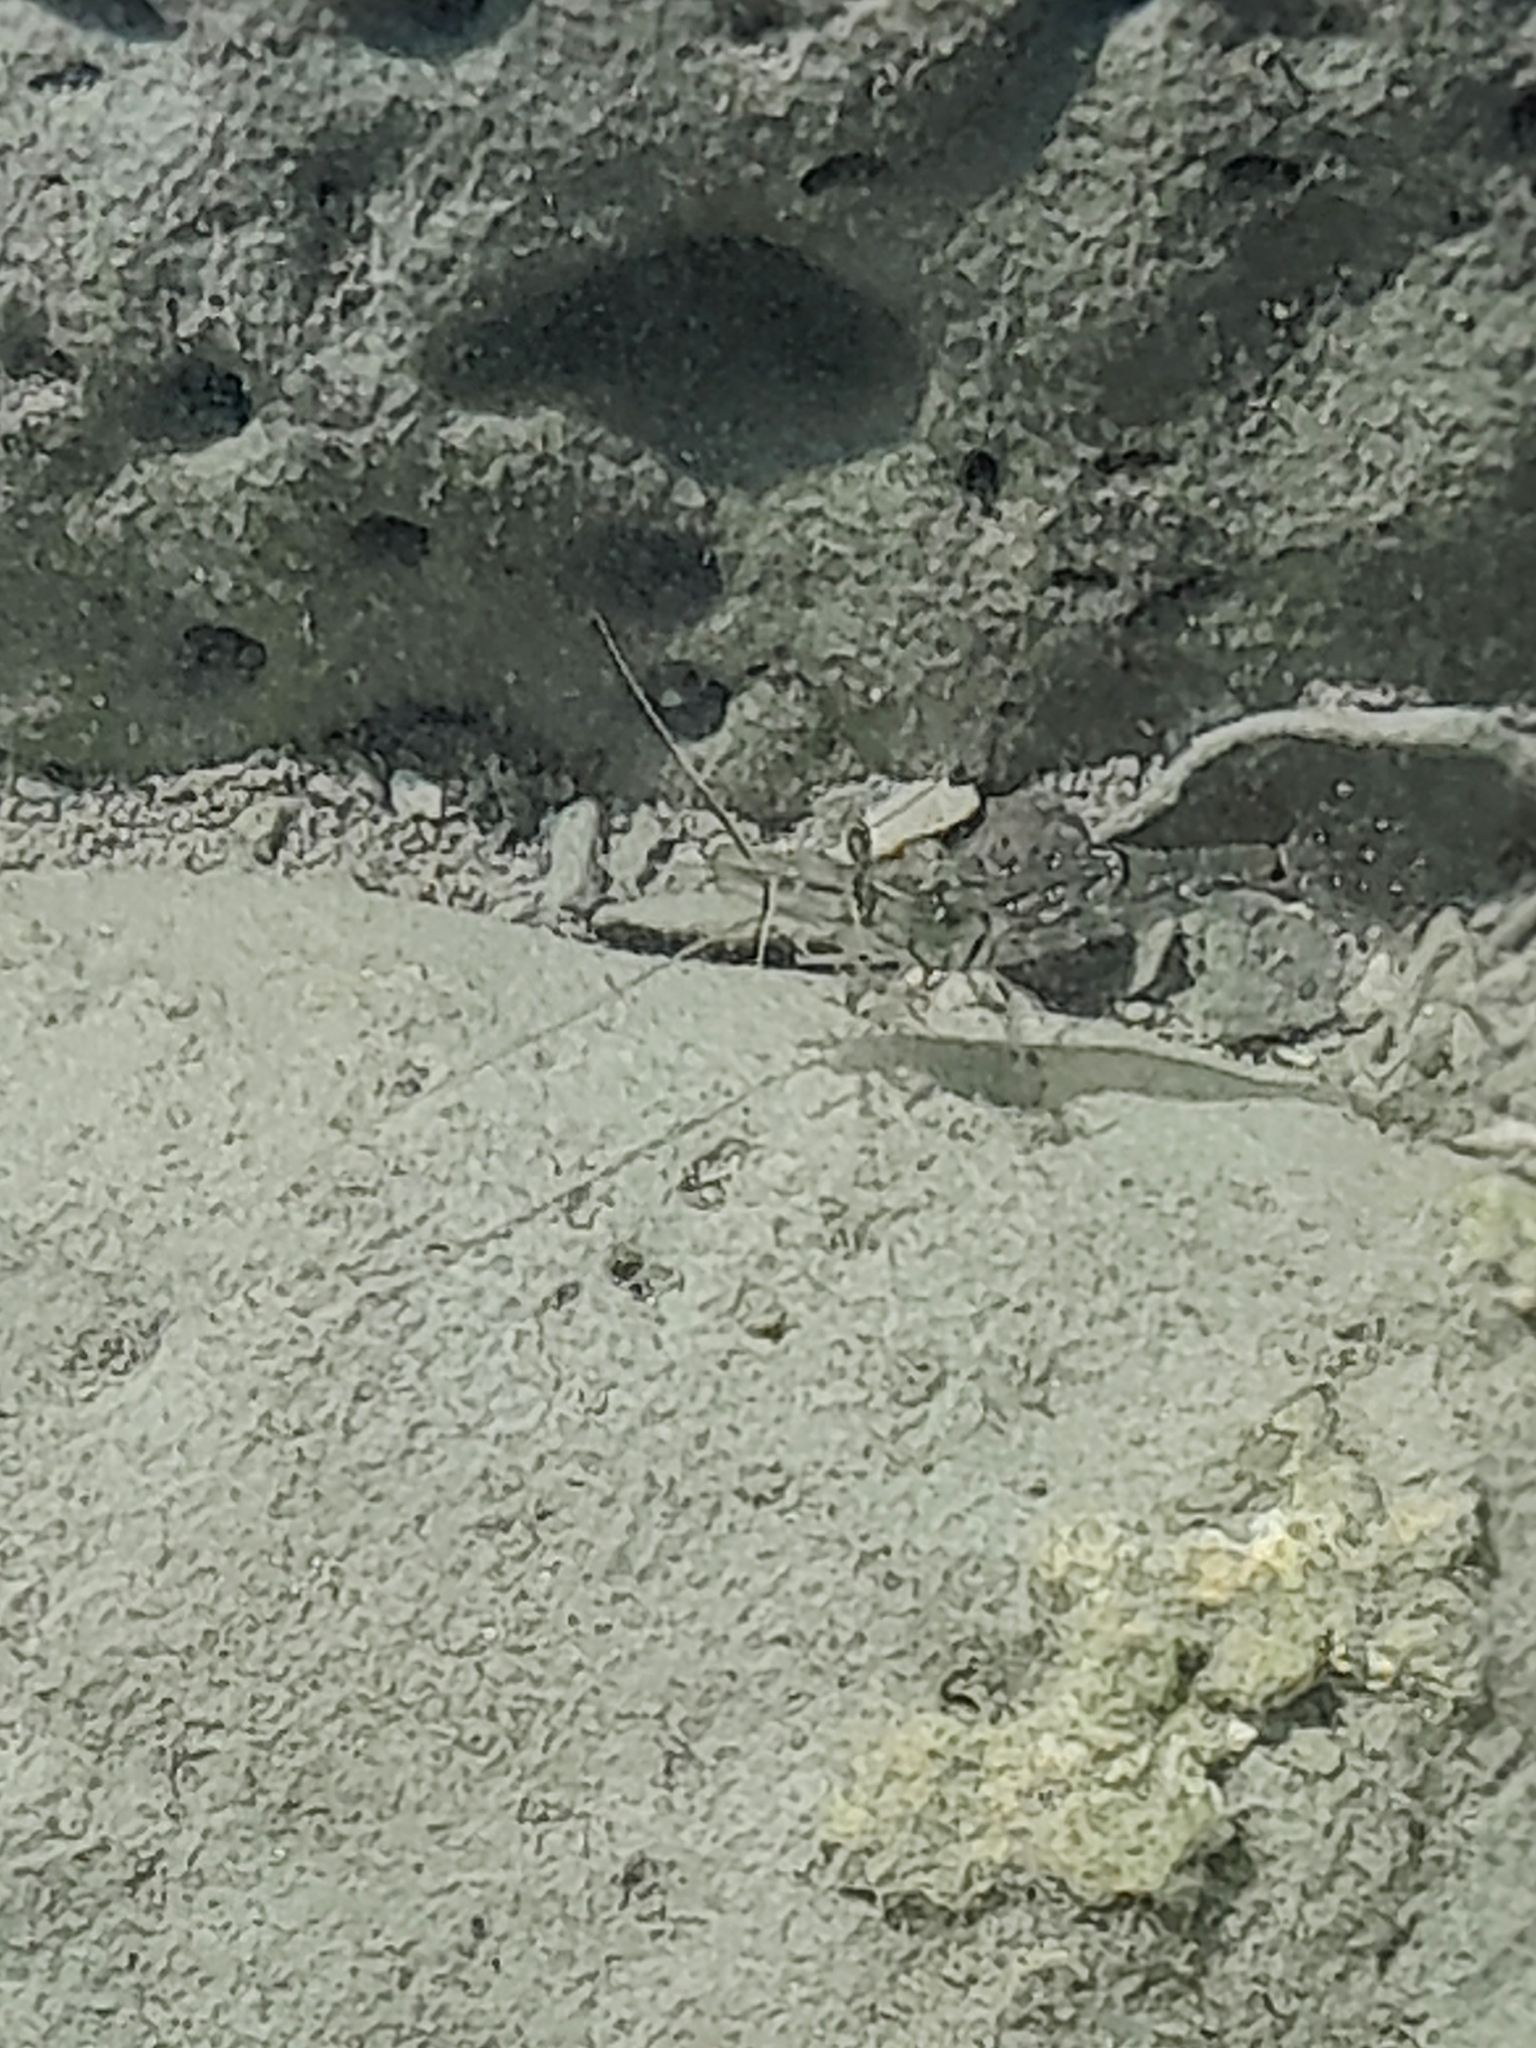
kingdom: Animalia
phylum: Arthropoda
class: Malacostraca
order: Decapoda
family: Palaemonidae
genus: Palaemon
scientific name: Palaemon affinis
